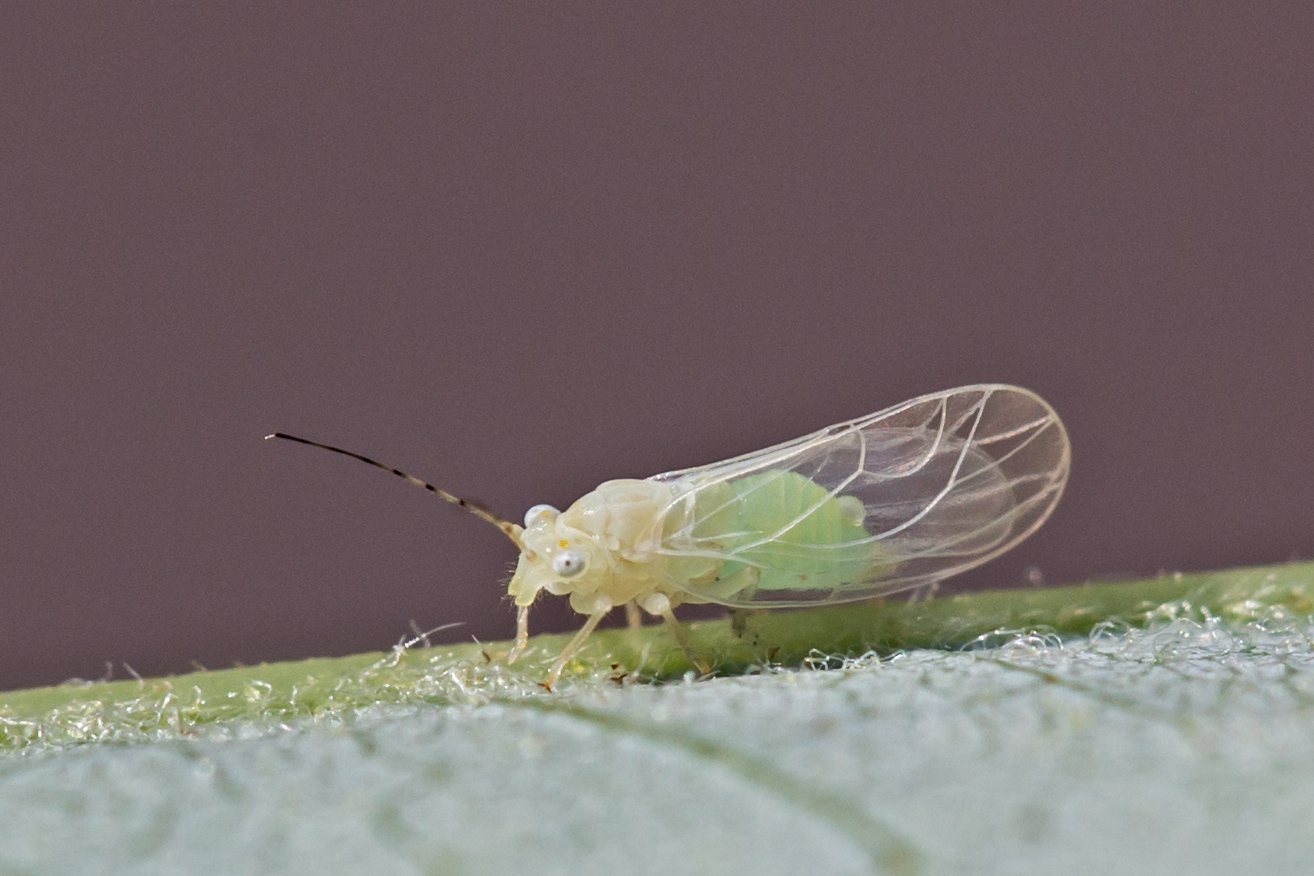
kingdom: Animalia
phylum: Arthropoda
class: Insecta
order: Hemiptera
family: Psyllidae
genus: Cacopsylla
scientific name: Cacopsylla annulata
